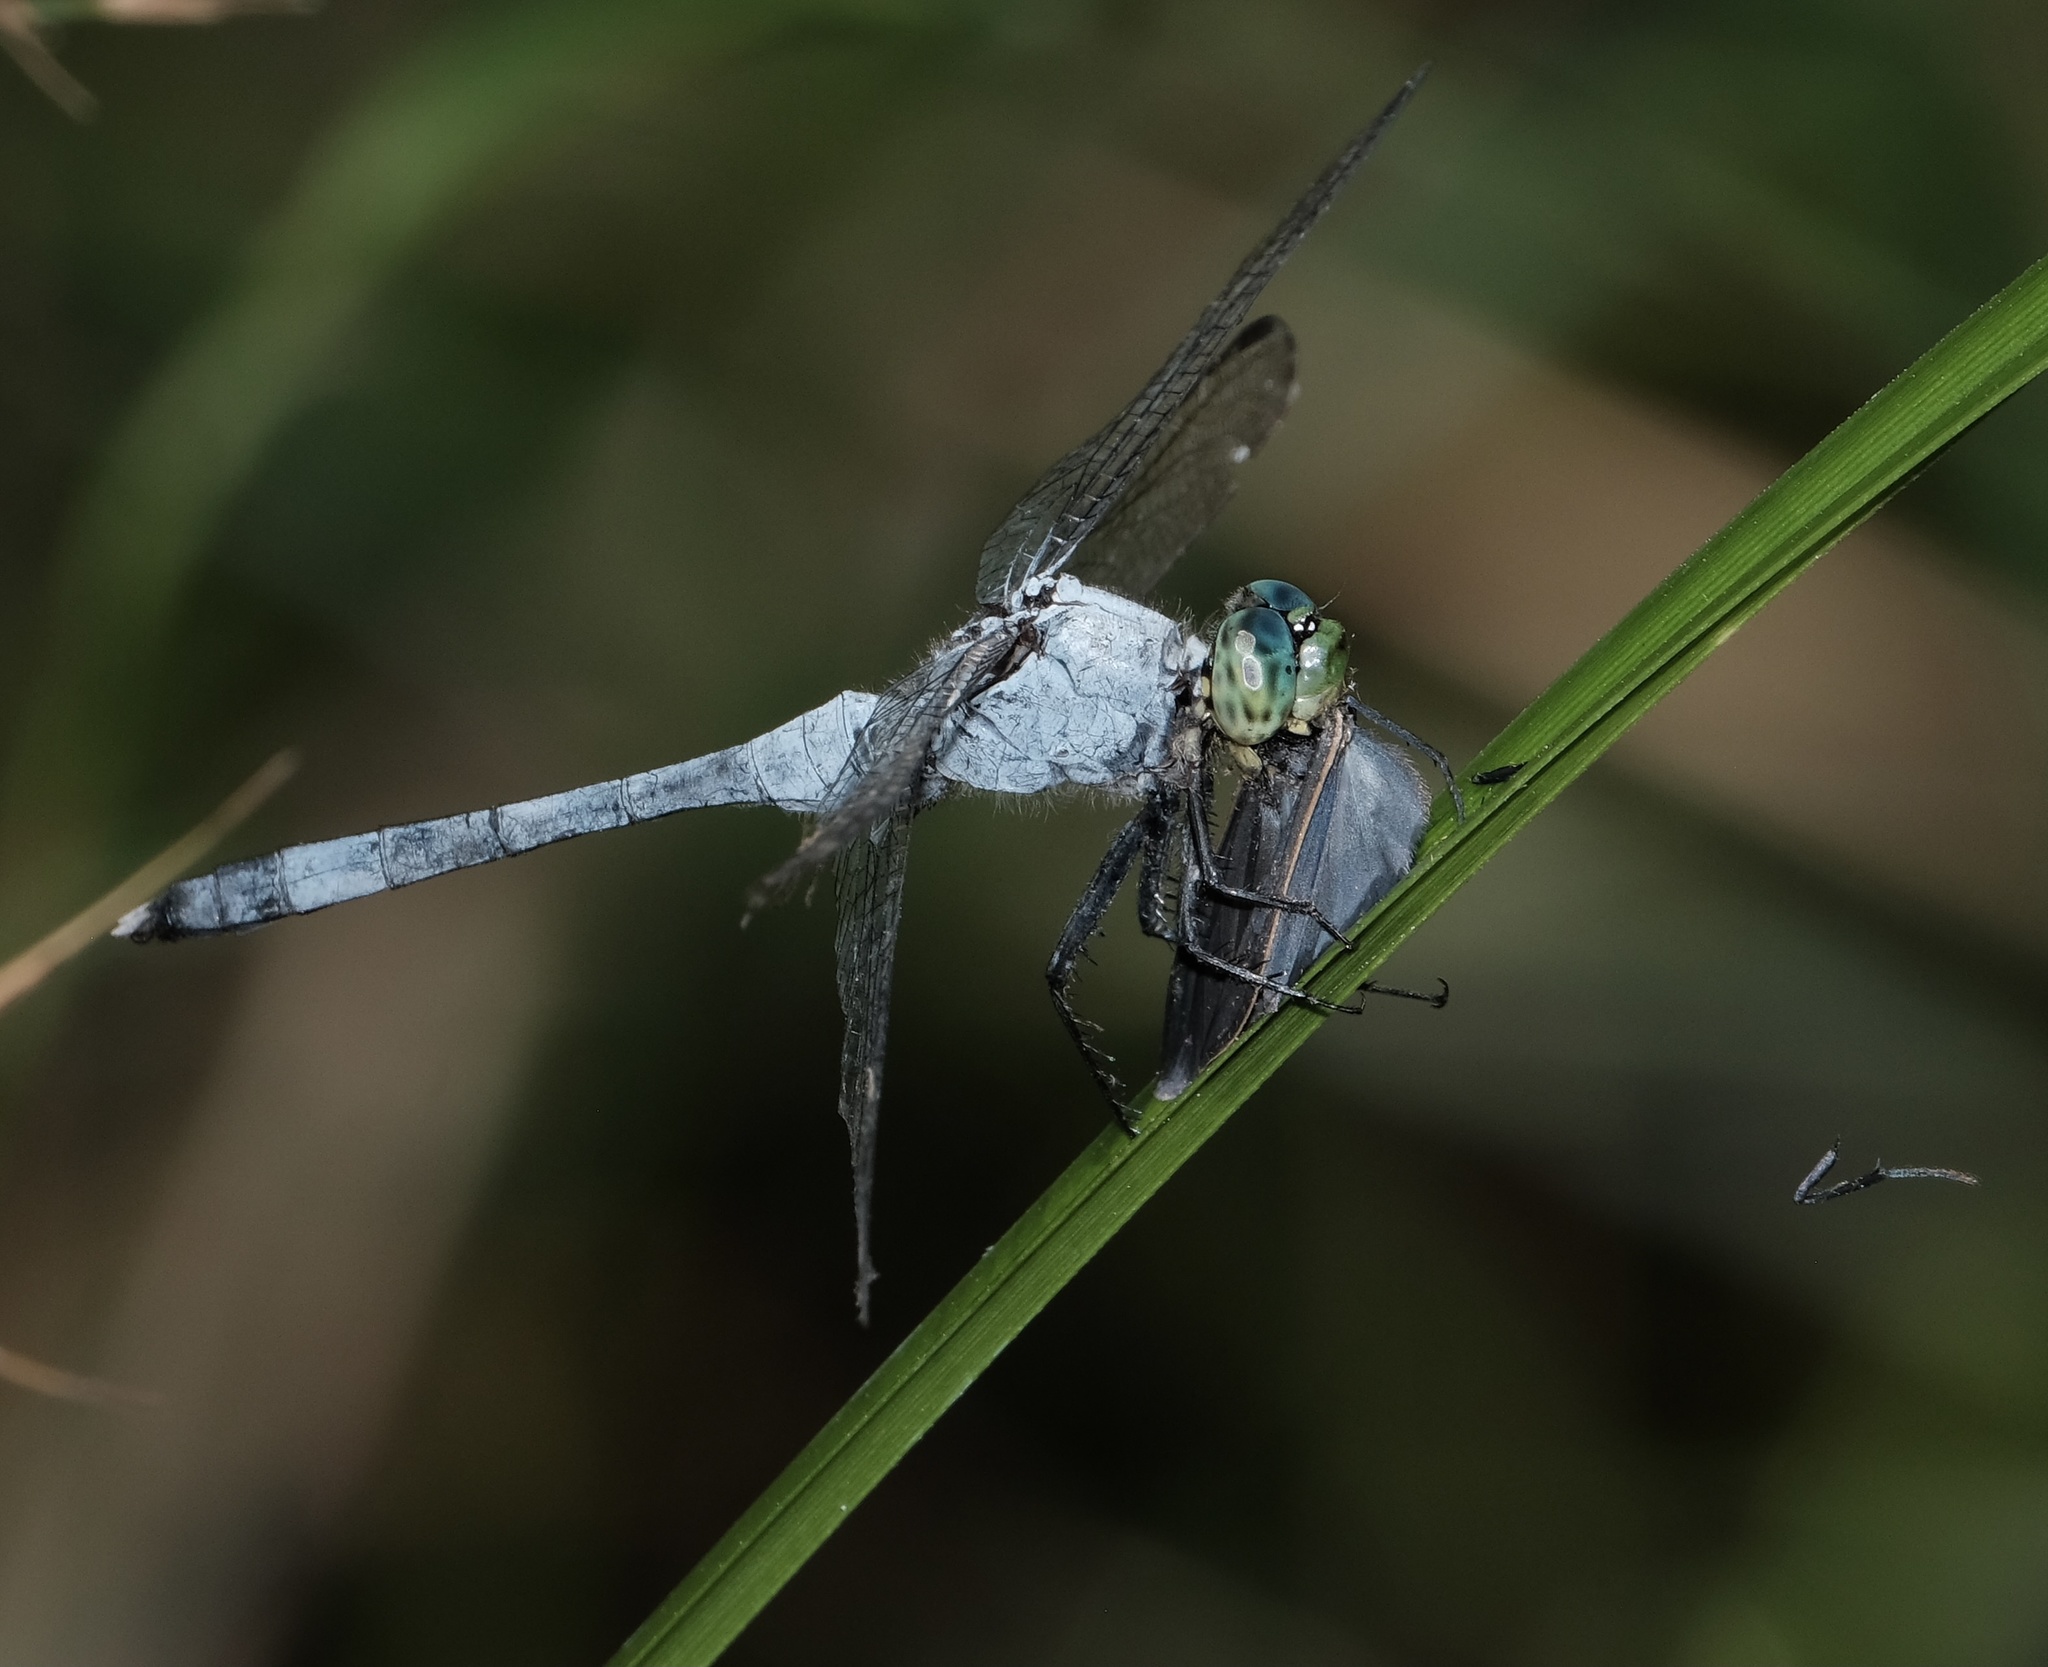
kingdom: Animalia
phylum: Arthropoda
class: Insecta
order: Odonata
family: Libellulidae
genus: Erythemis
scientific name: Erythemis simplicicollis
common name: Eastern pondhawk
